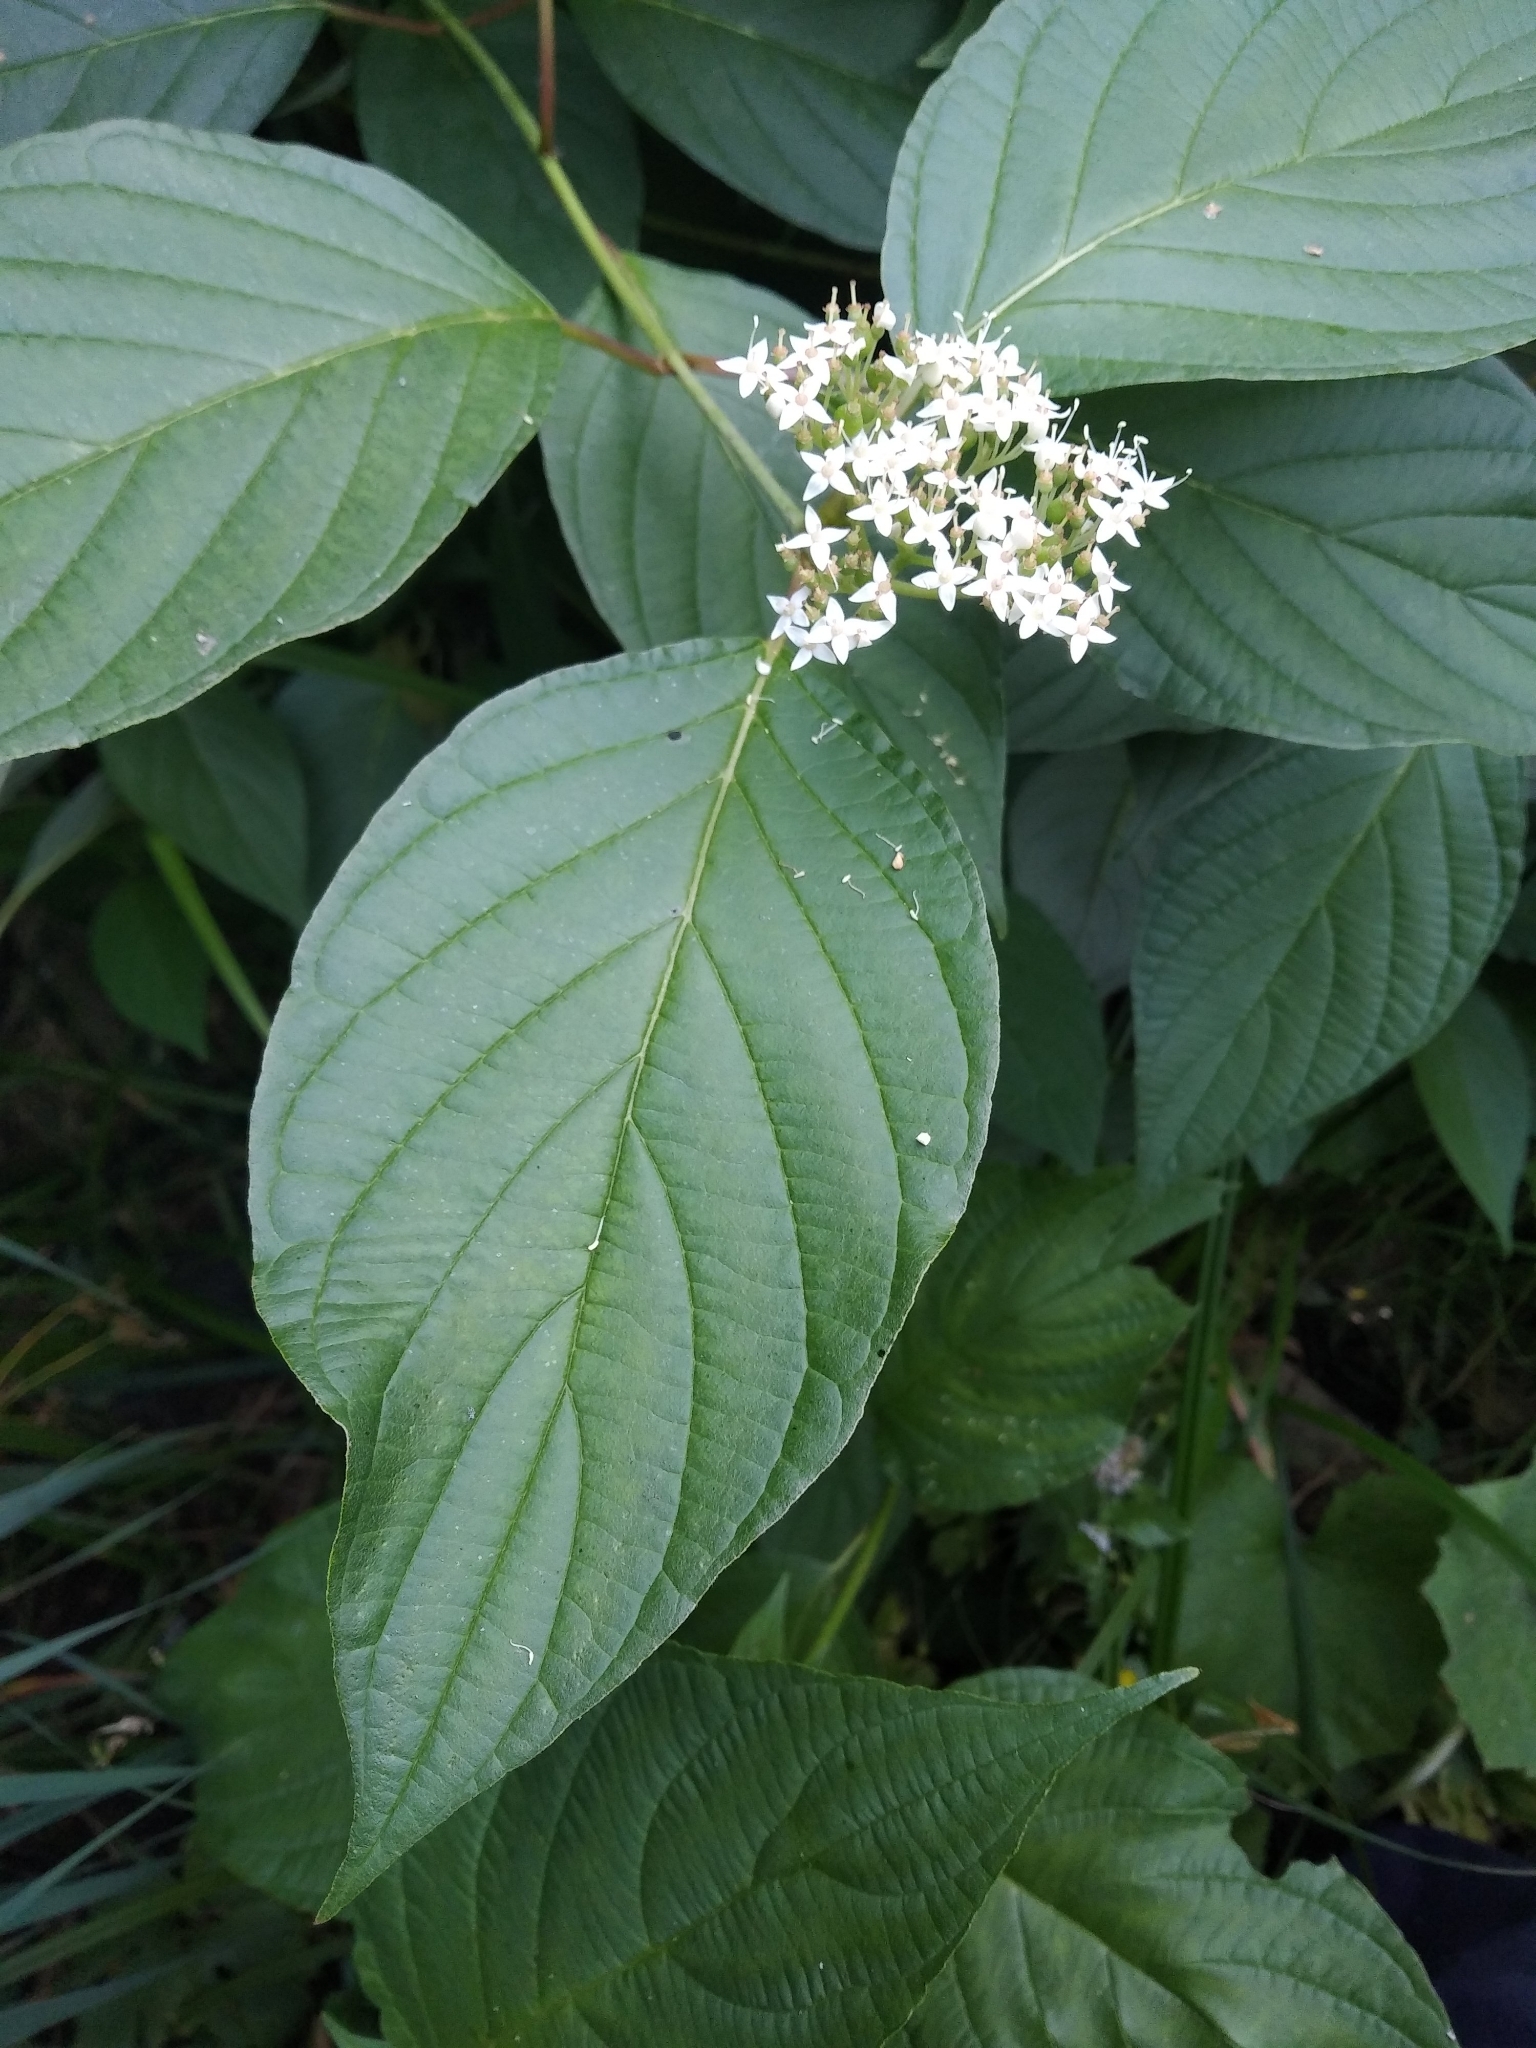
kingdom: Plantae
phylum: Tracheophyta
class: Magnoliopsida
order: Cornales
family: Cornaceae
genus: Cornus
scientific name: Cornus alba
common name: White dogwood
